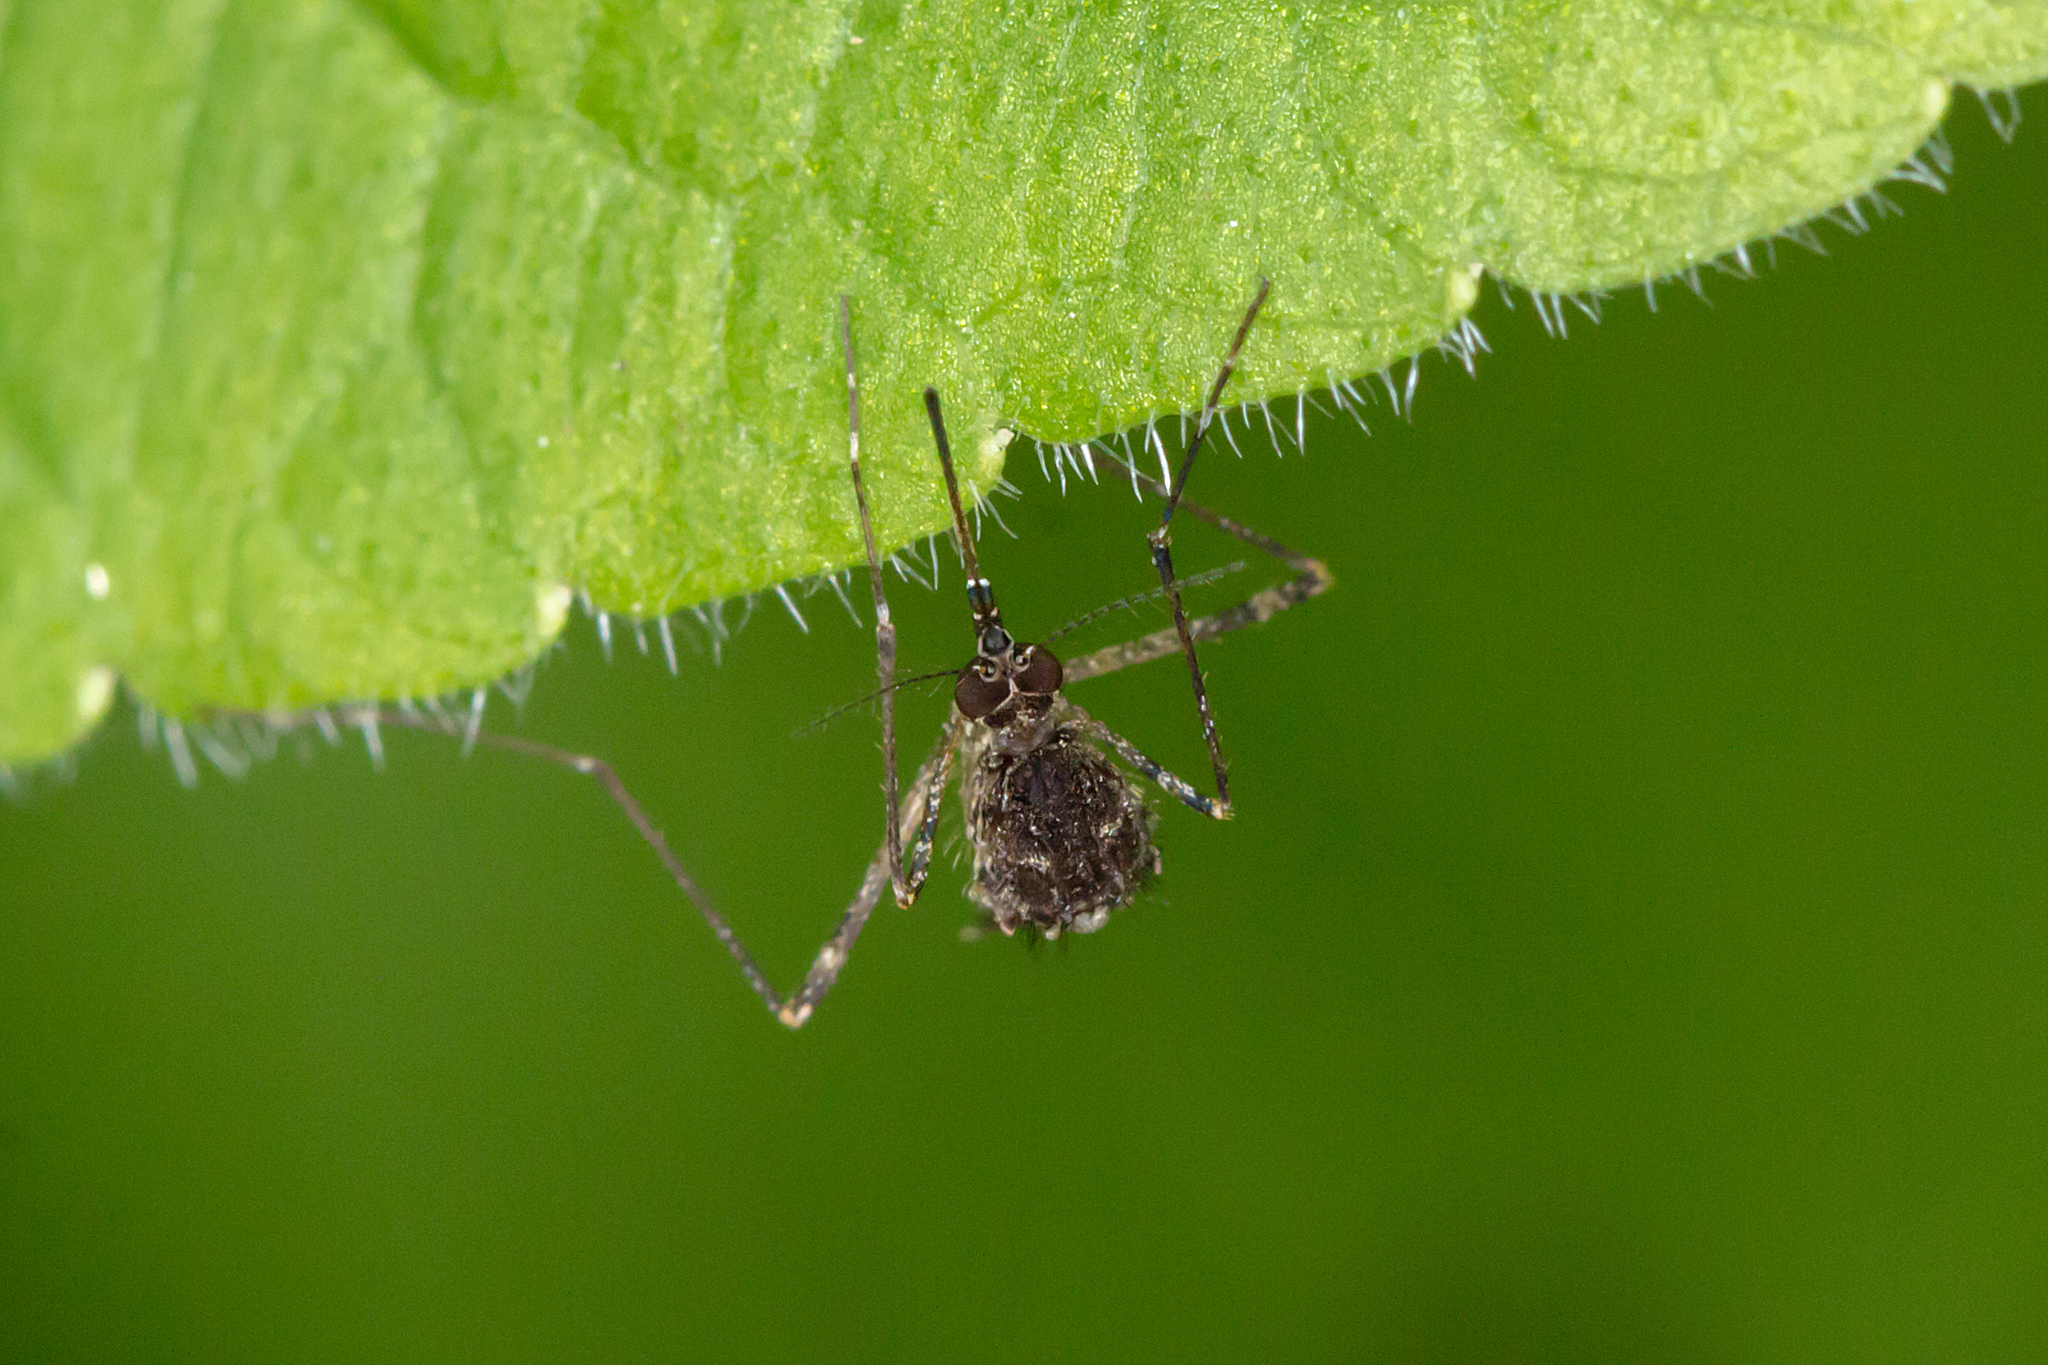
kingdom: Animalia
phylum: Arthropoda
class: Insecta
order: Diptera
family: Culicidae
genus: Aedes
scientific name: Aedes alboannulatus
